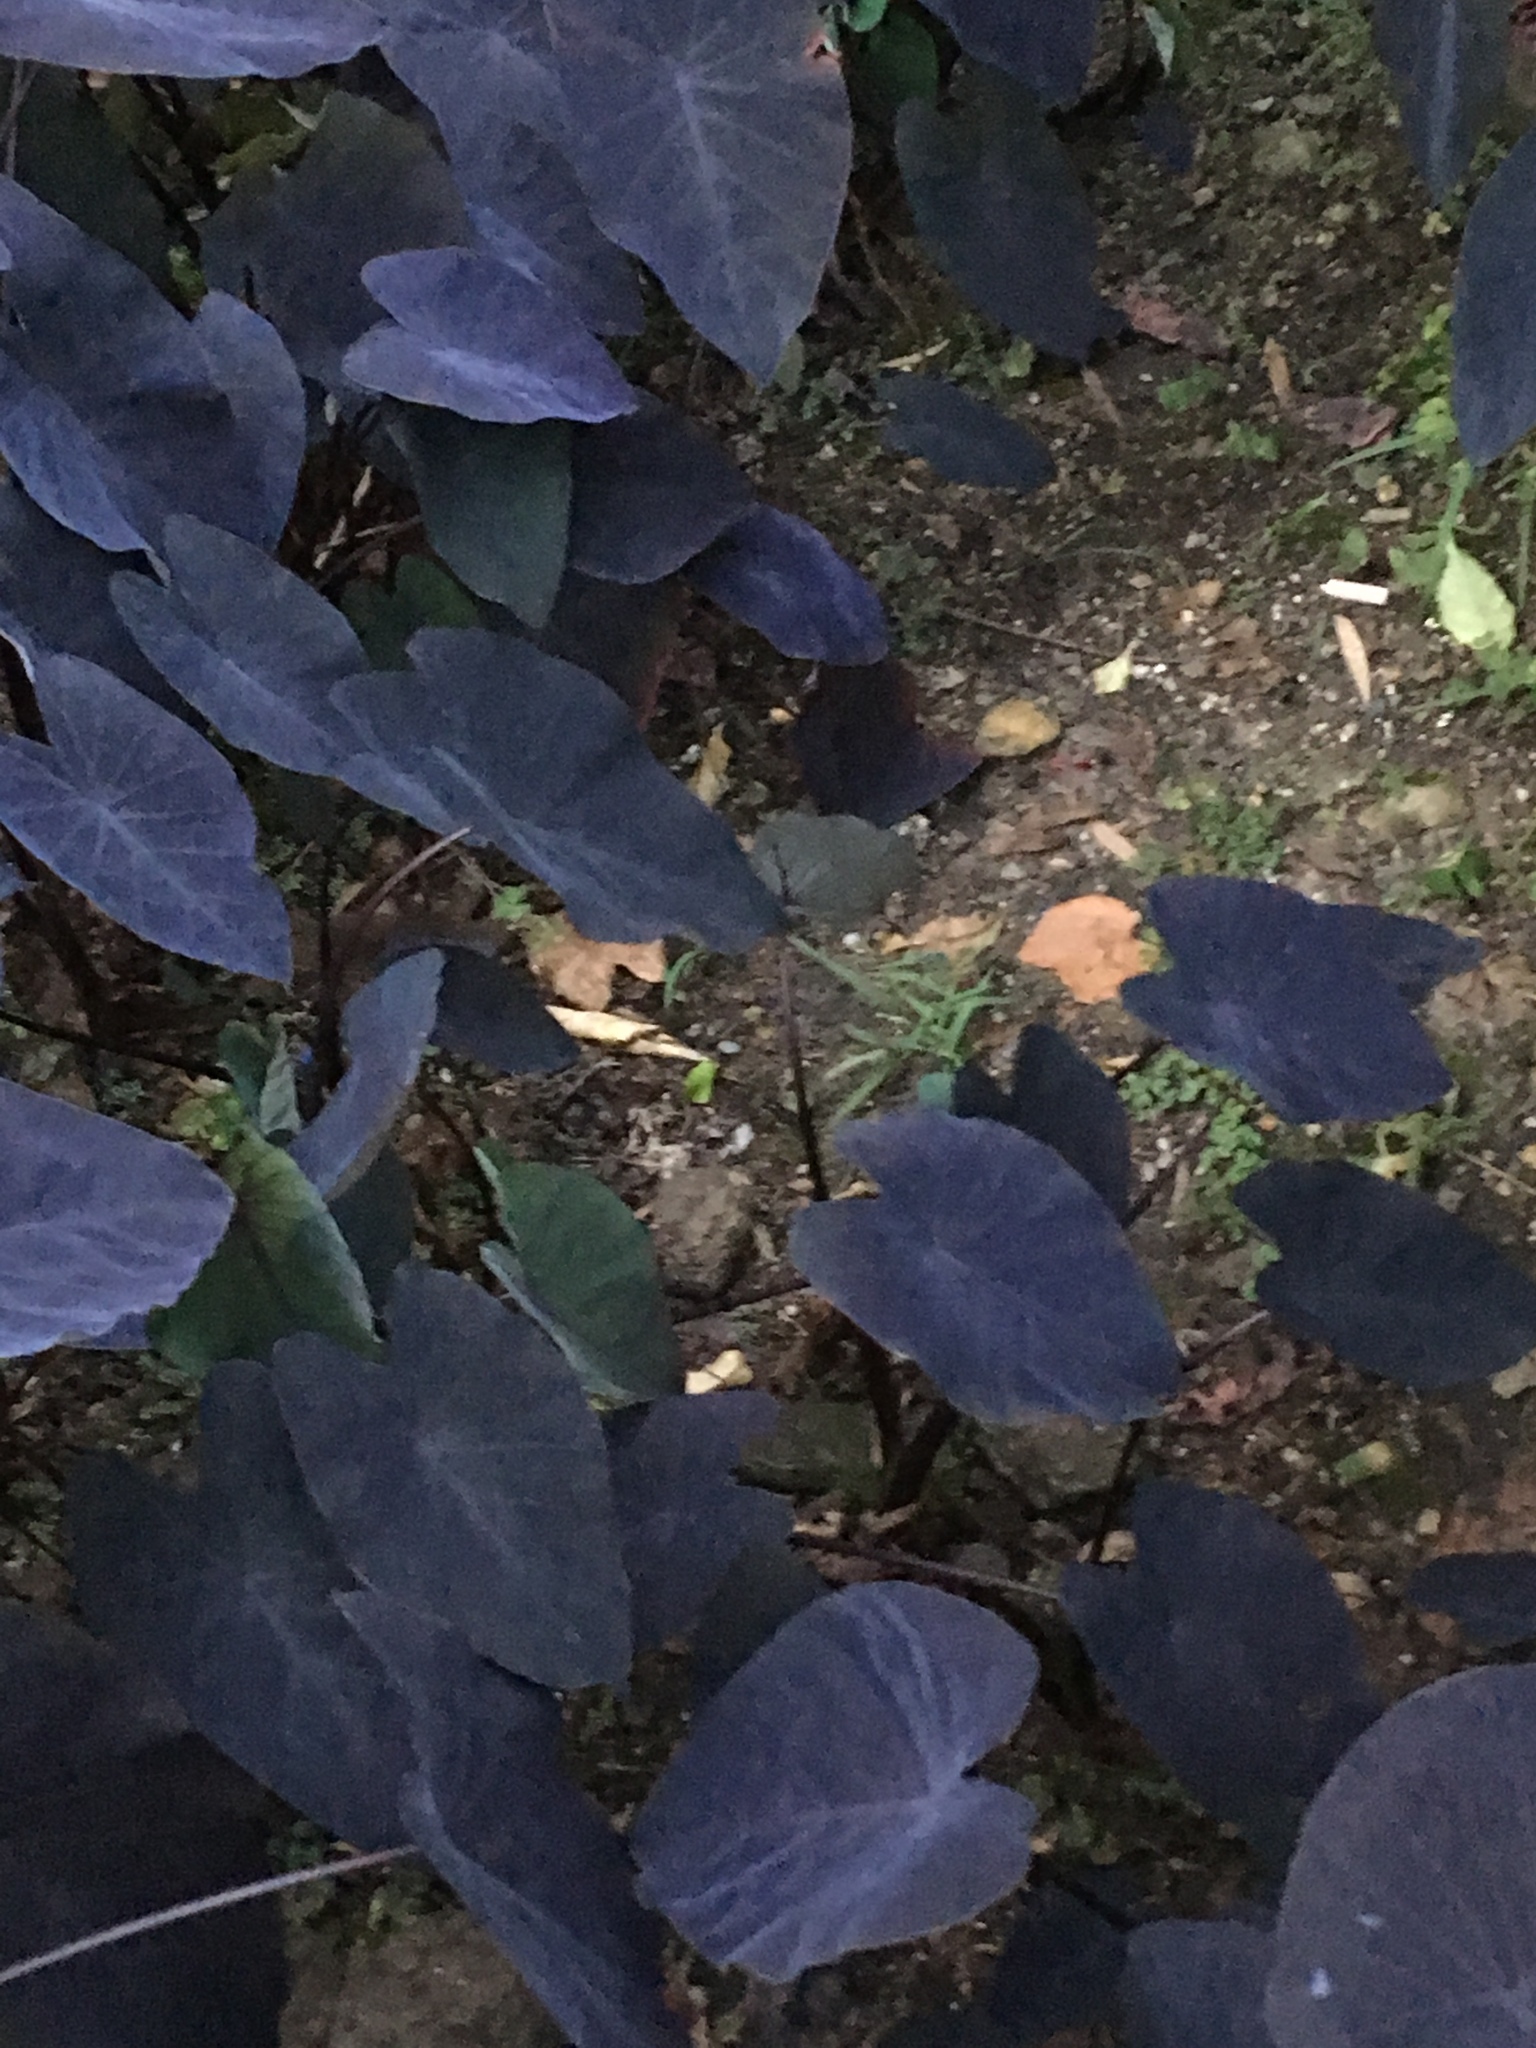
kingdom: Plantae
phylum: Tracheophyta
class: Liliopsida
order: Alismatales
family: Araceae
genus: Colocasia
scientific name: Colocasia esculenta
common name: Taro
